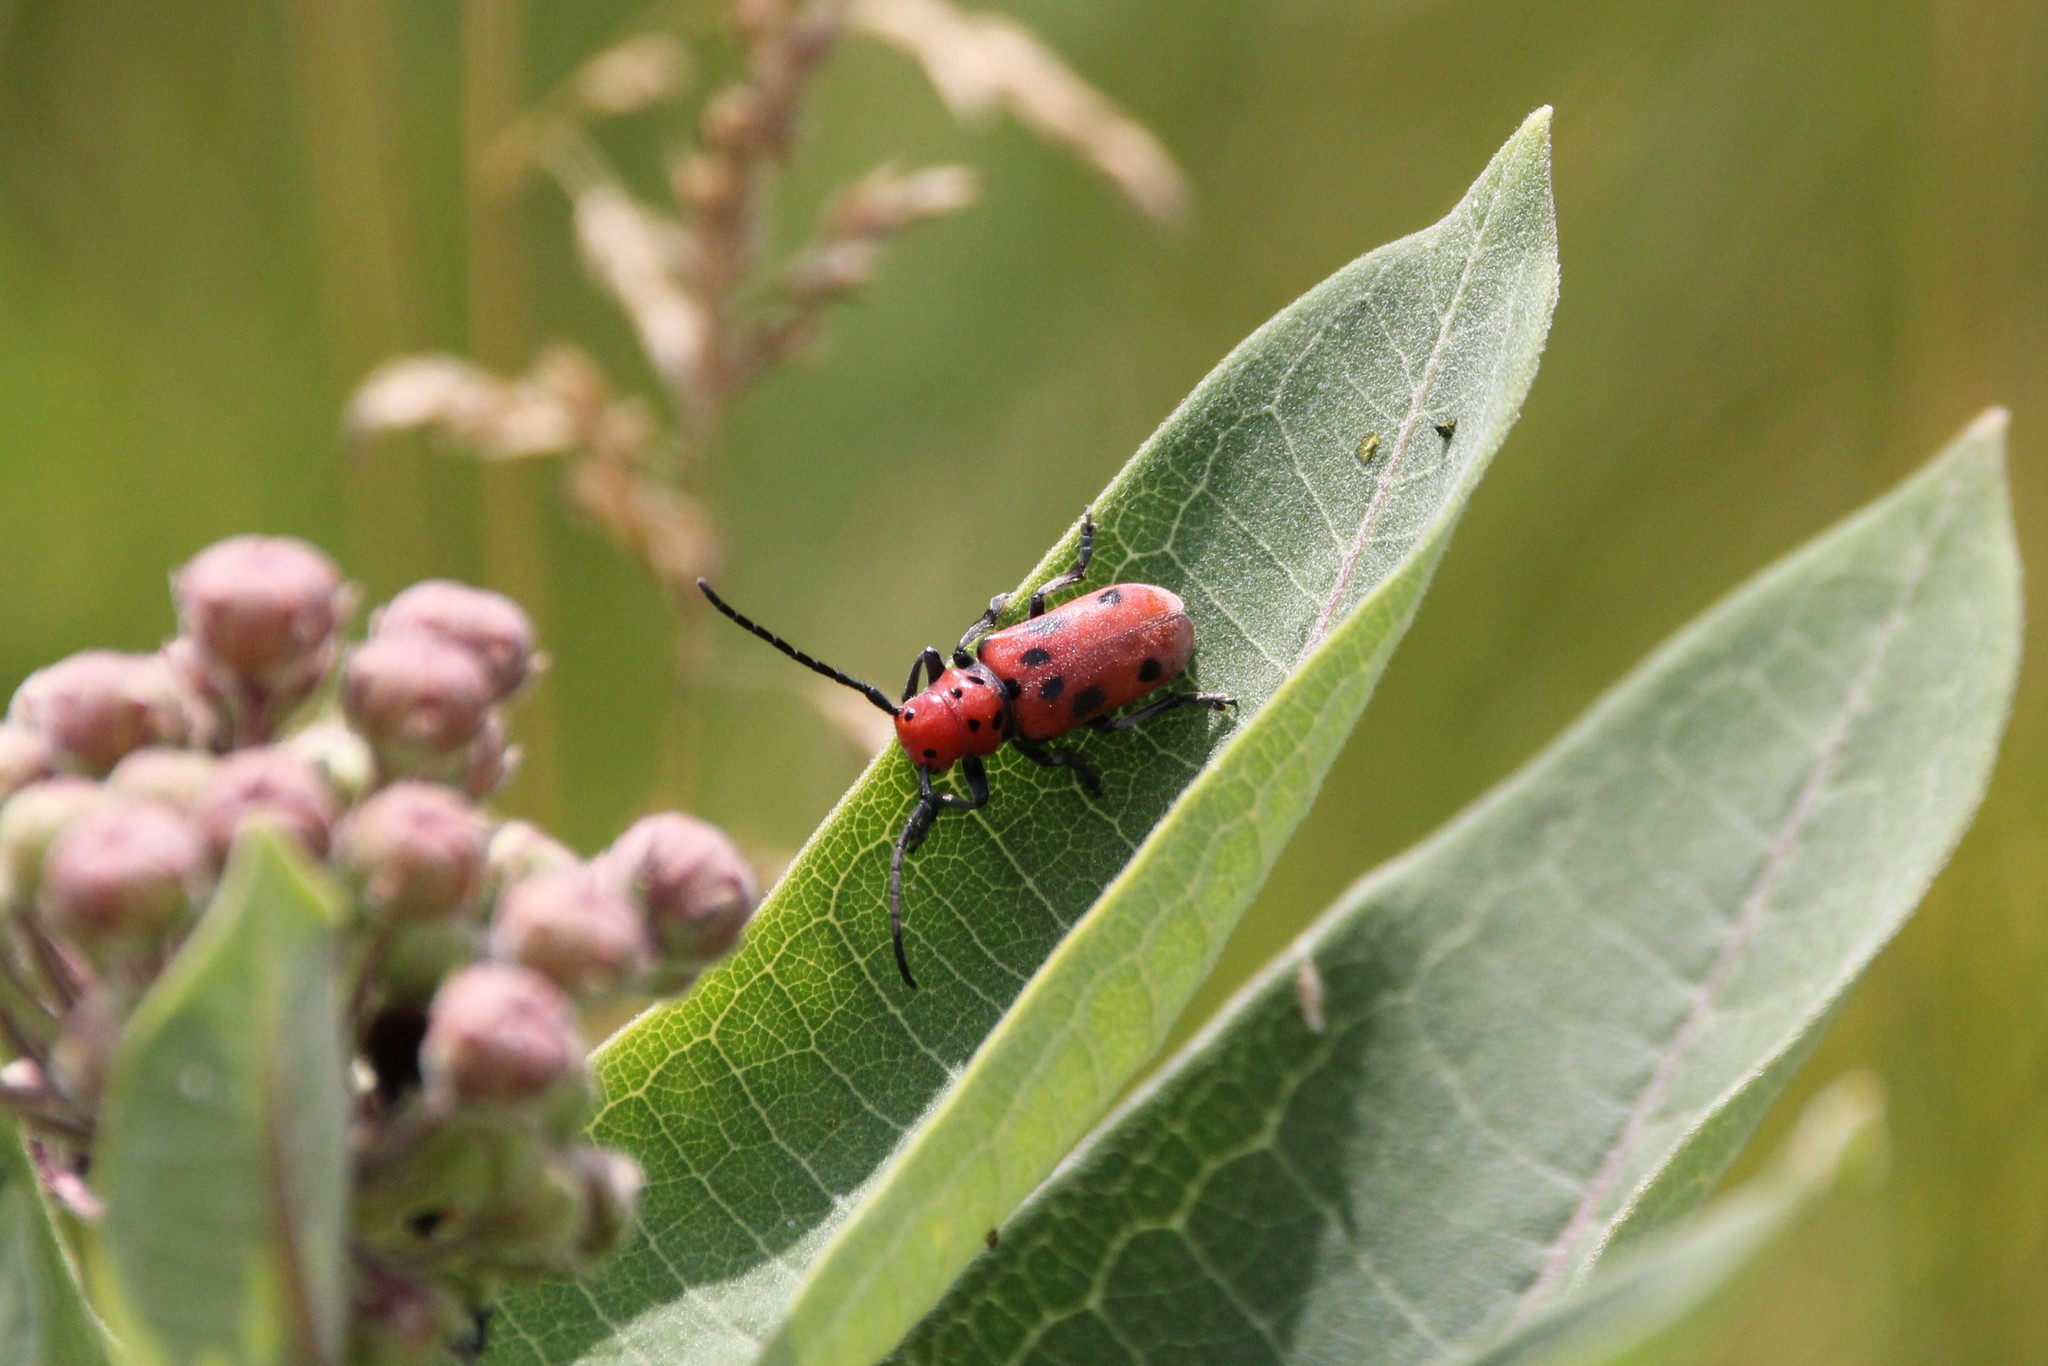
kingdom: Animalia
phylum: Arthropoda
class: Insecta
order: Coleoptera
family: Cerambycidae
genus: Tetraopes
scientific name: Tetraopes tetrophthalmus
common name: Red milkweed beetle
